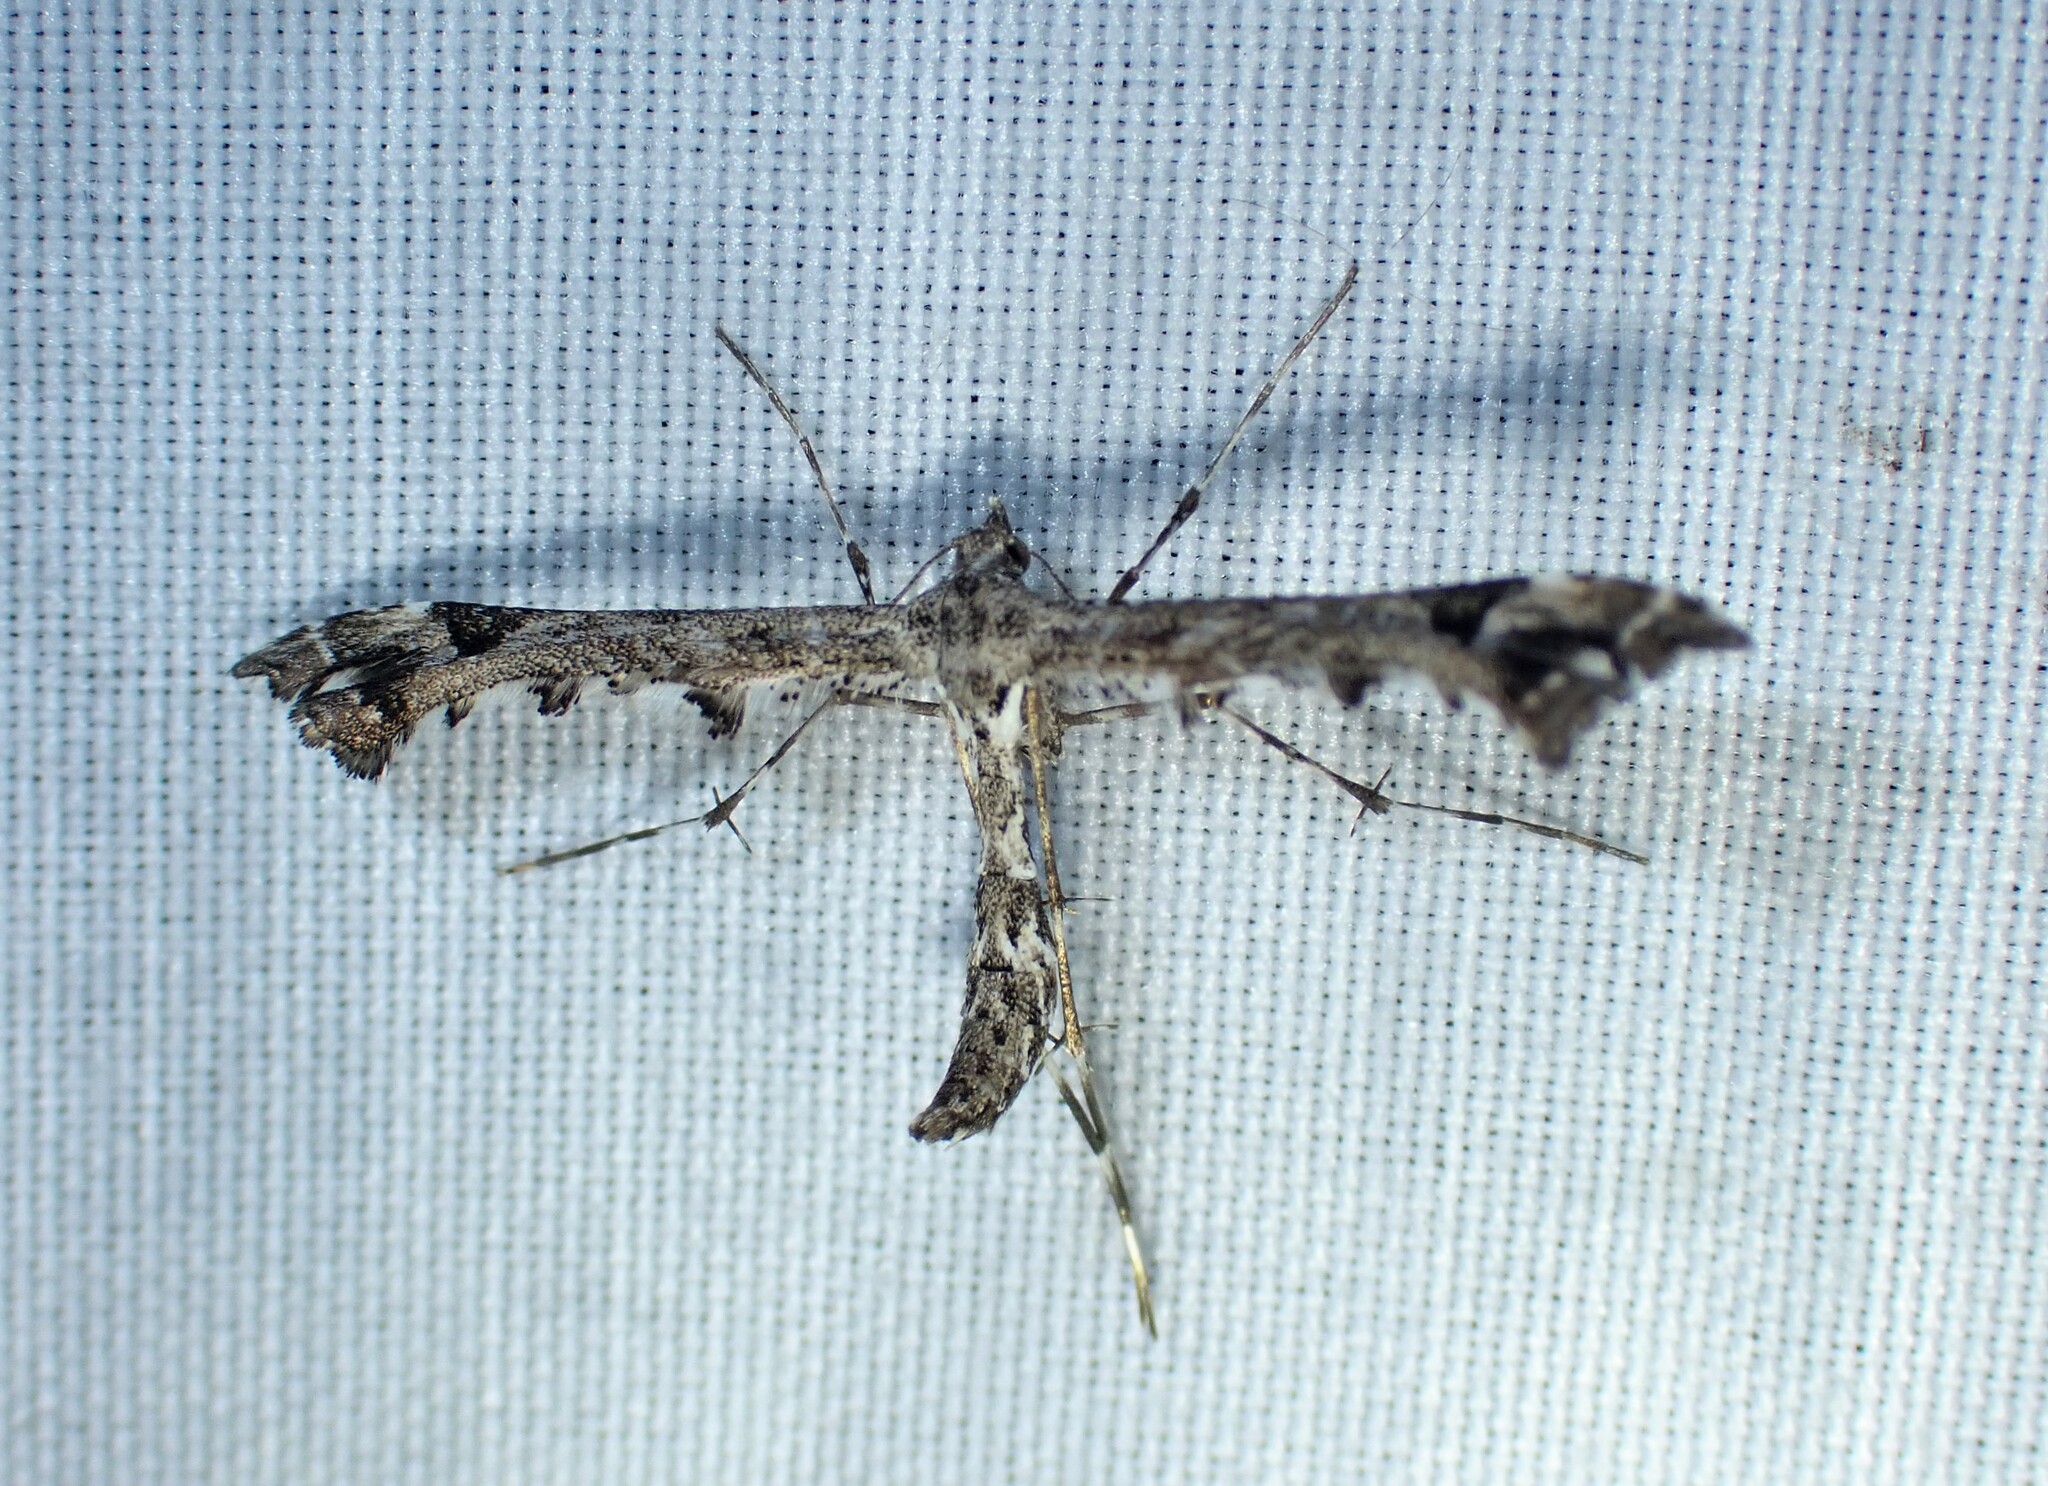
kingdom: Animalia
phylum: Arthropoda
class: Insecta
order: Lepidoptera
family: Pterophoridae
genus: Amblyptilia
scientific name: Amblyptilia pica
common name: Geranium plume moth
